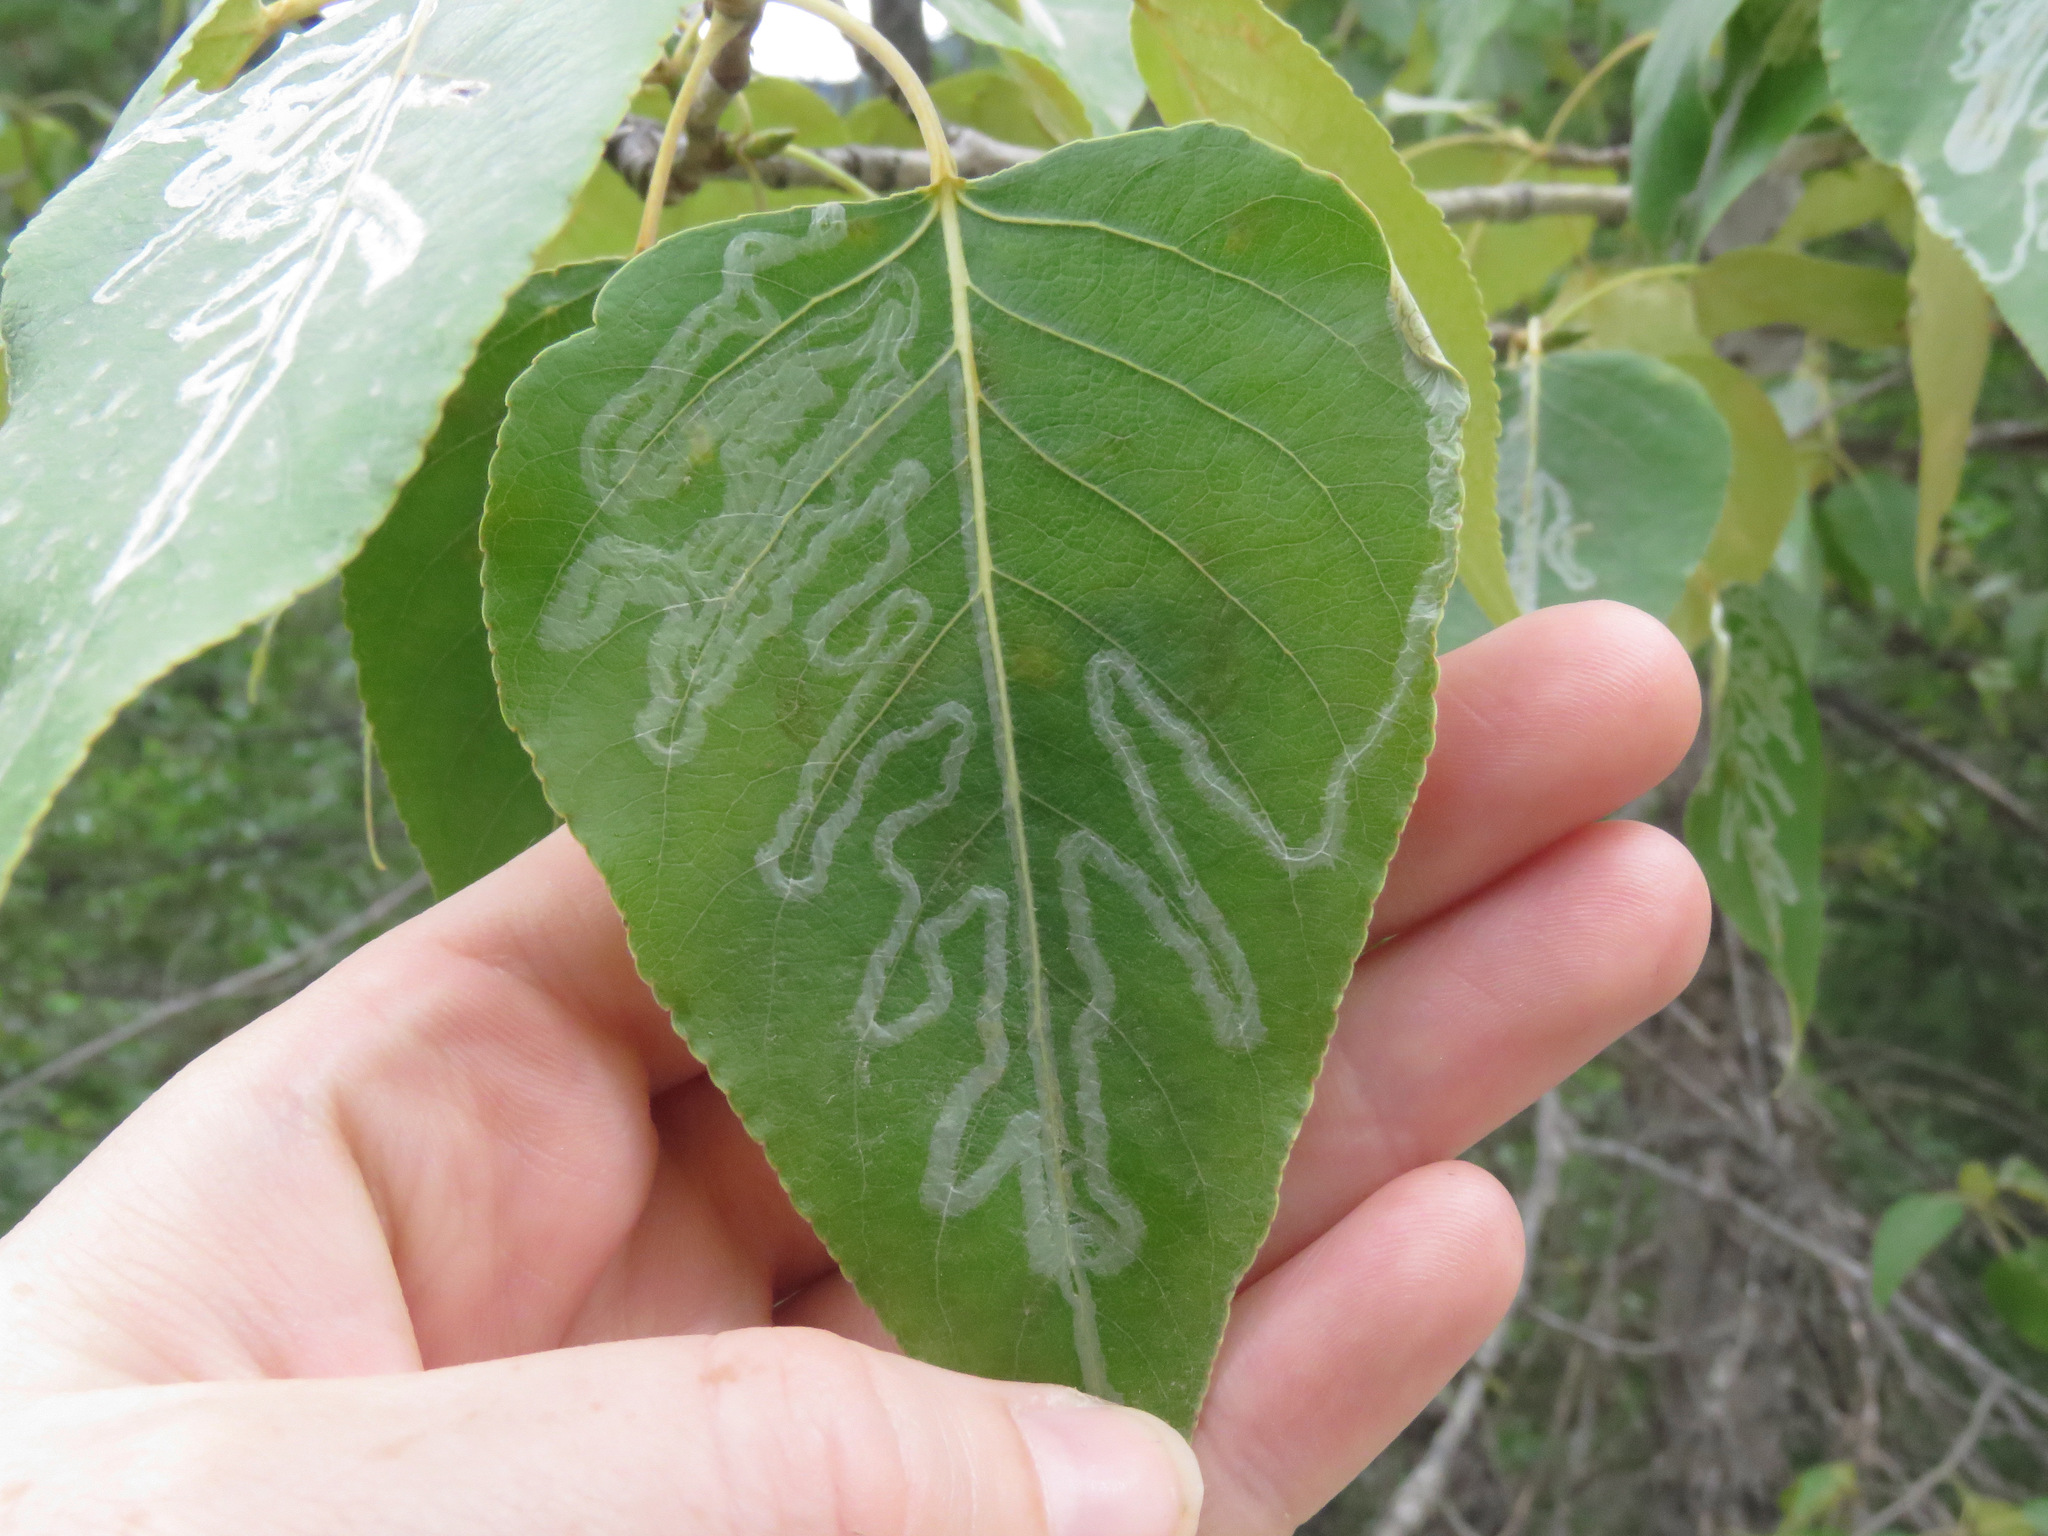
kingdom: Animalia
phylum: Arthropoda
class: Insecta
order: Lepidoptera
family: Gracillariidae
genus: Phyllocnistis
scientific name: Phyllocnistis populiella
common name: Aspen serpentine leafminer moth
